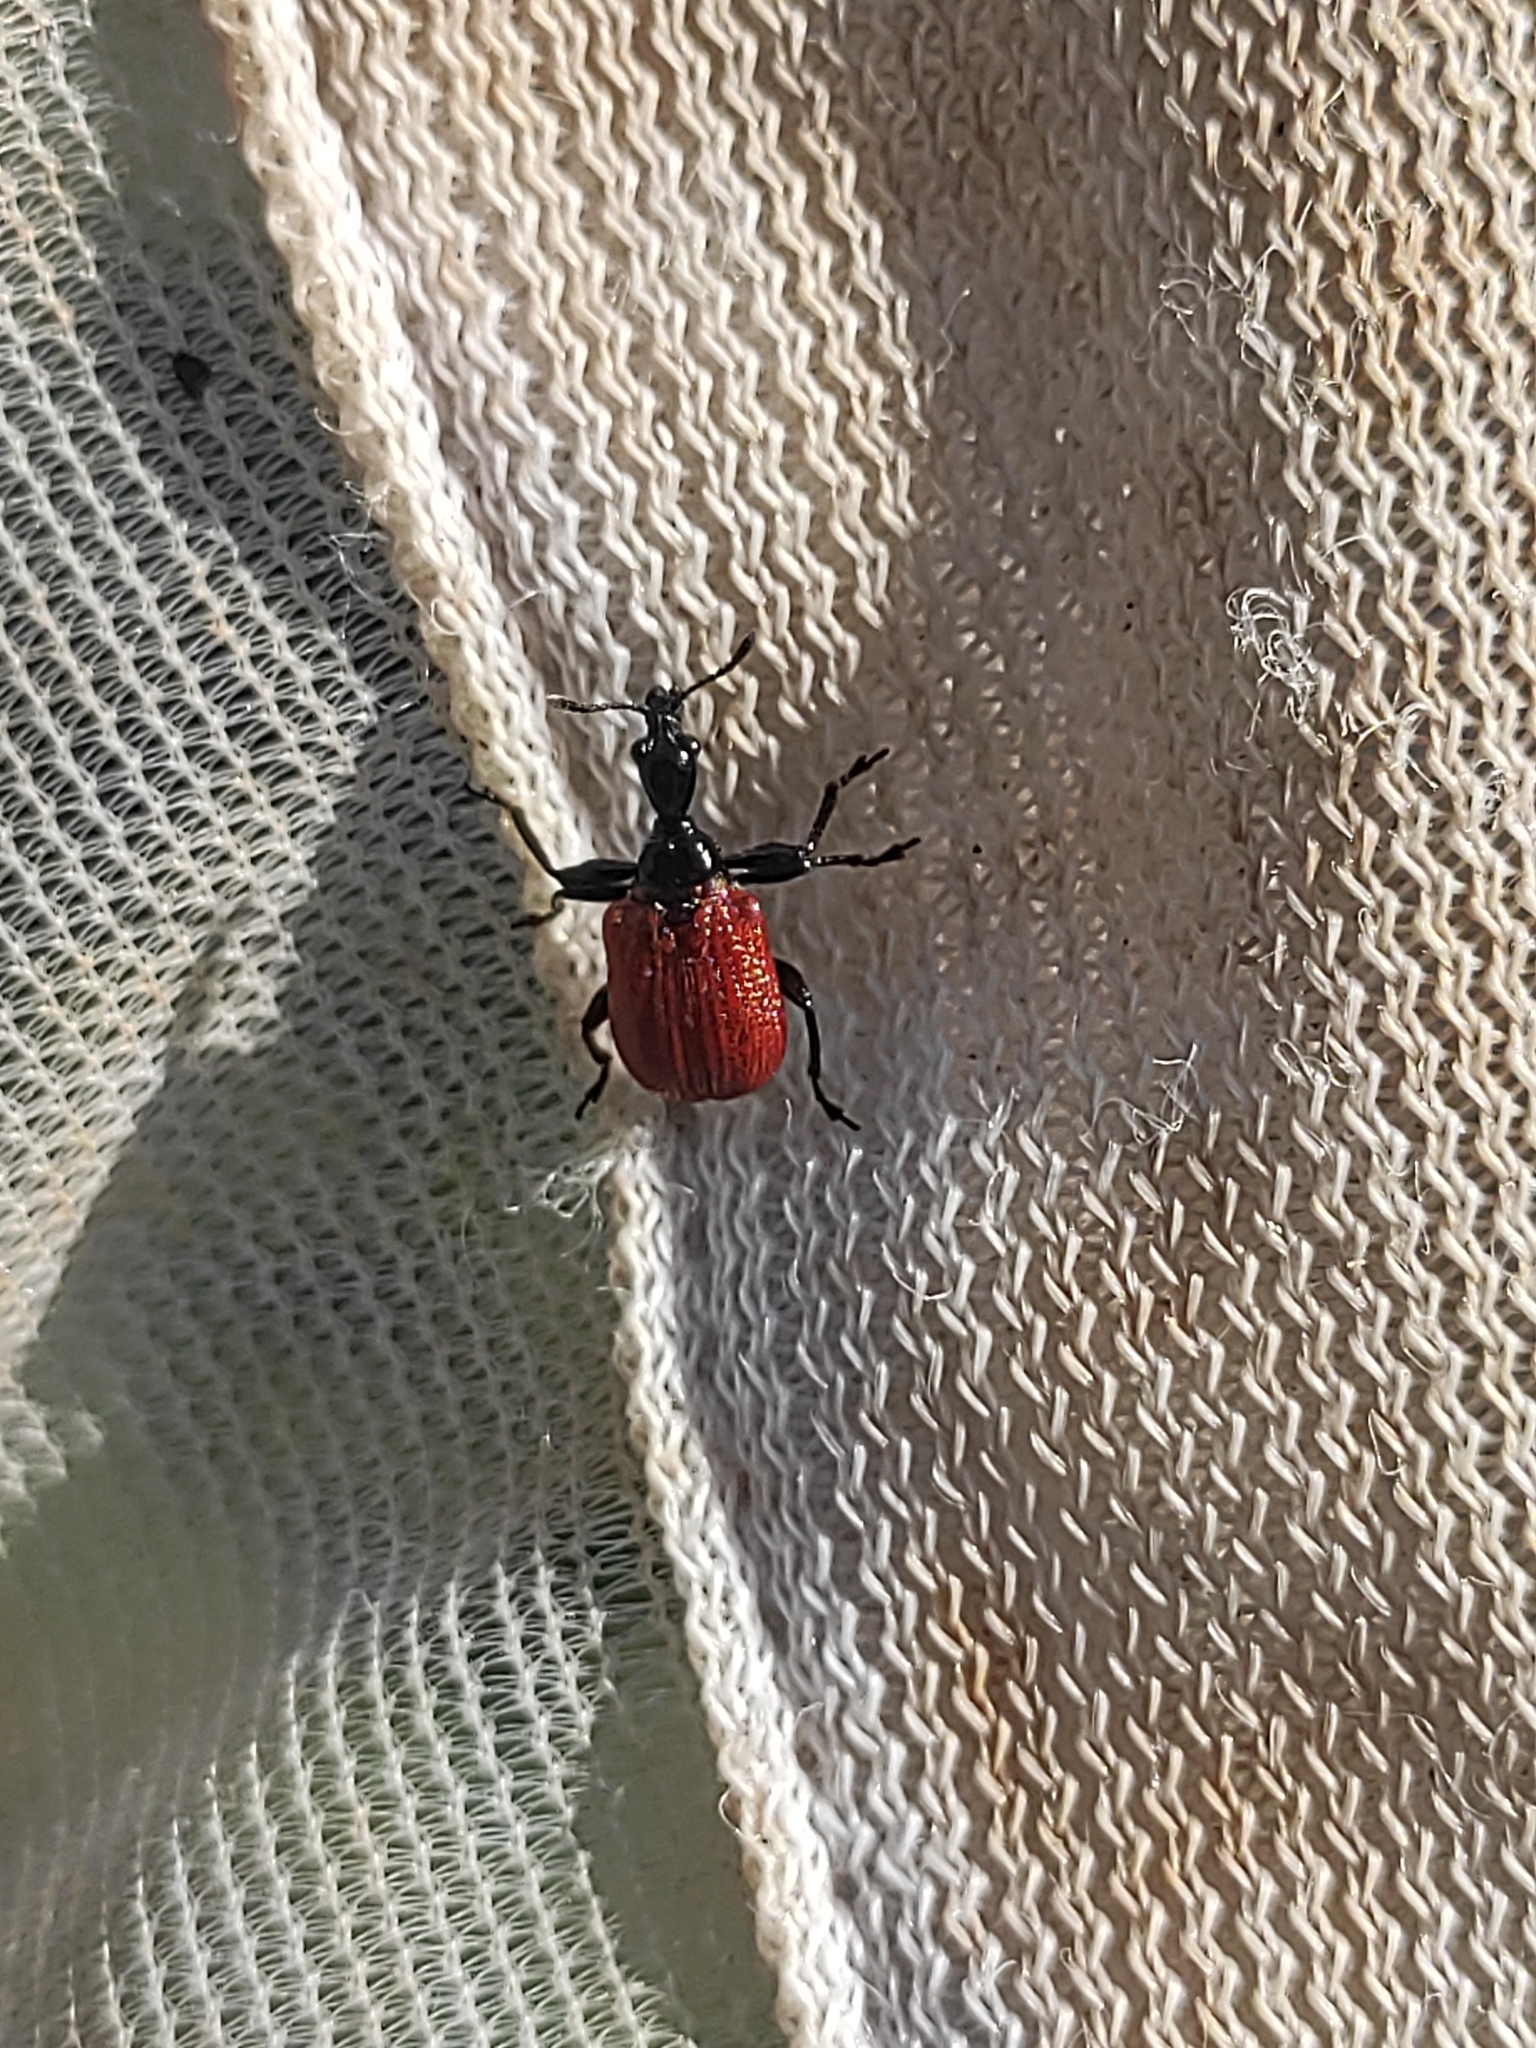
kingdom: Animalia
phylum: Arthropoda
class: Insecta
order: Coleoptera
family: Attelabidae
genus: Apoderus
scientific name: Apoderus coryli
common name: Hazel leaf roller
